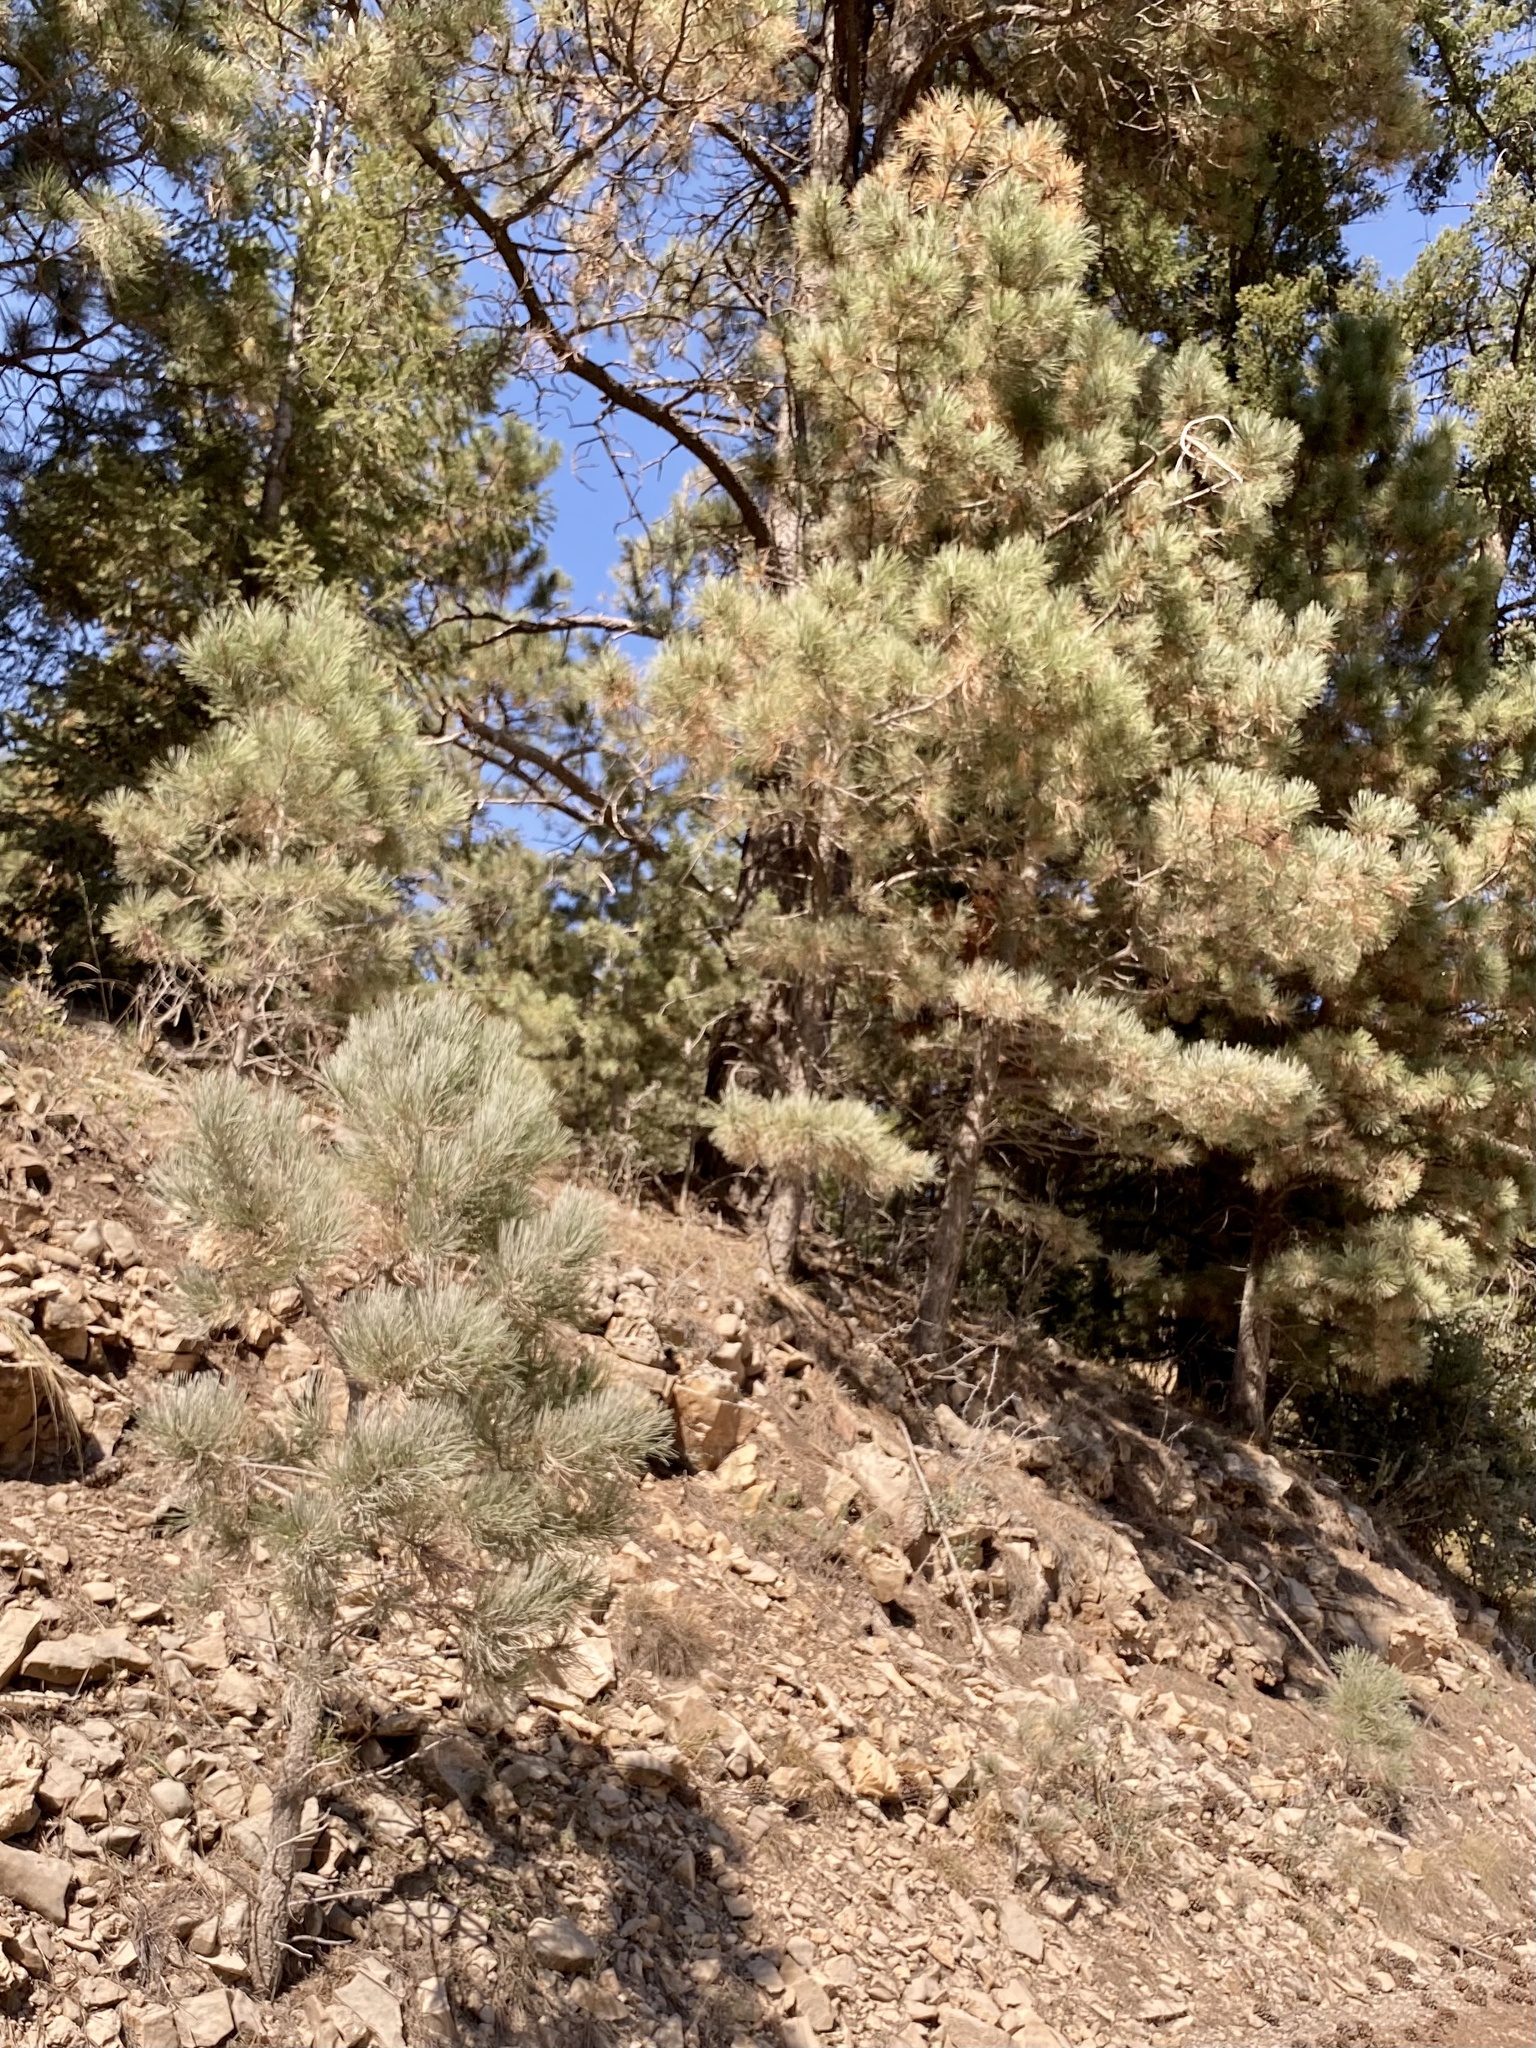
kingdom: Plantae
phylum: Tracheophyta
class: Pinopsida
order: Pinales
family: Pinaceae
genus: Pinus
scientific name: Pinus ponderosa
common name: Western yellow-pine
